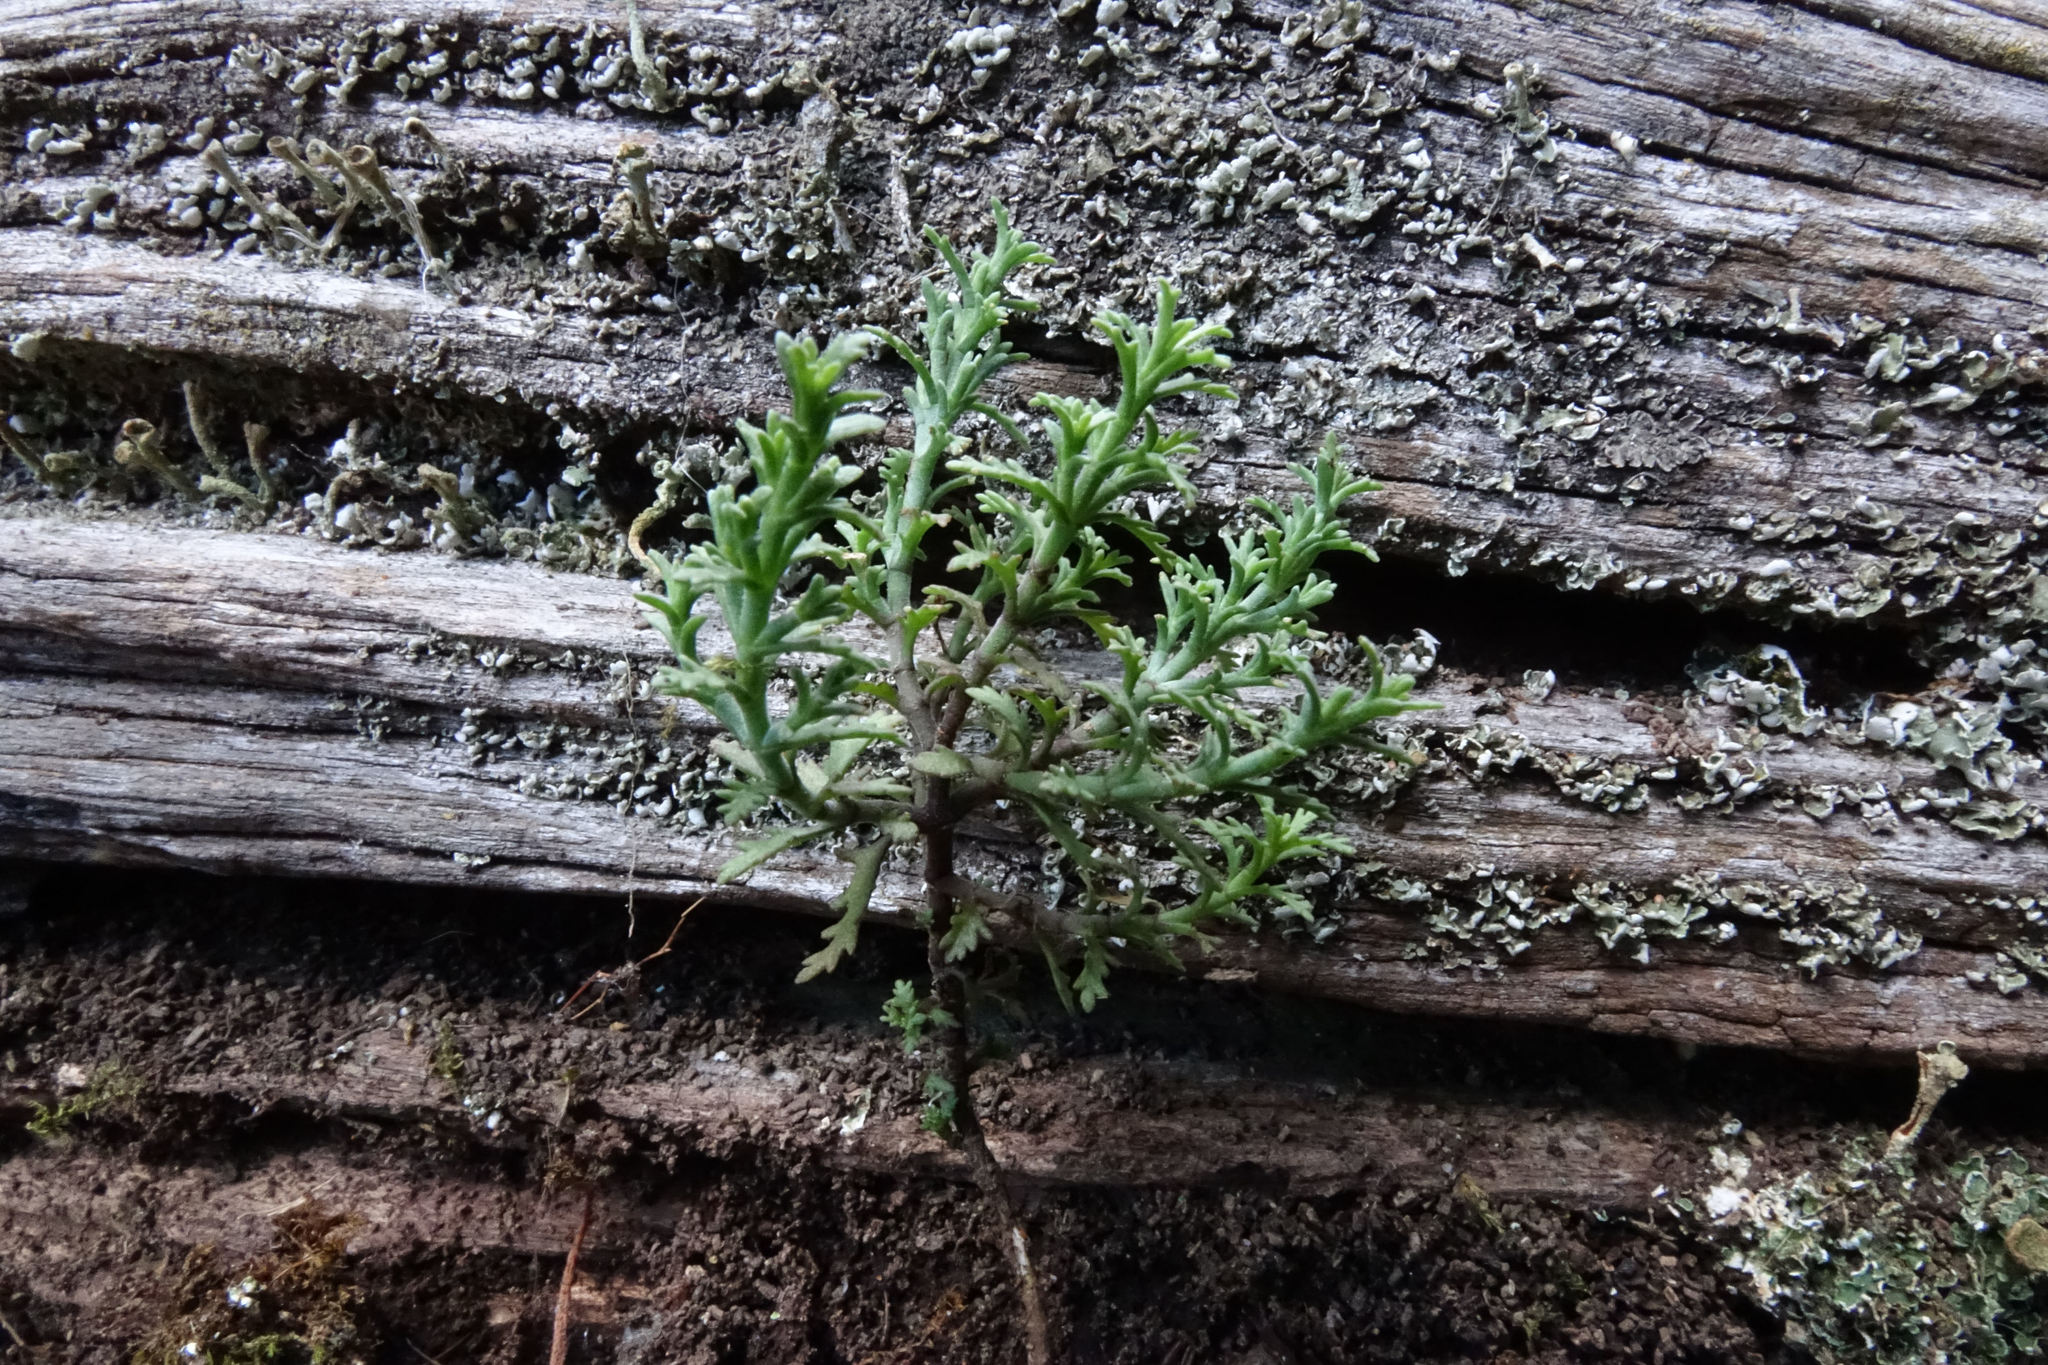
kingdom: Plantae
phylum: Tracheophyta
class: Magnoliopsida
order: Lamiales
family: Plantaginaceae
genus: Veronica
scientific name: Veronica cupressoides
